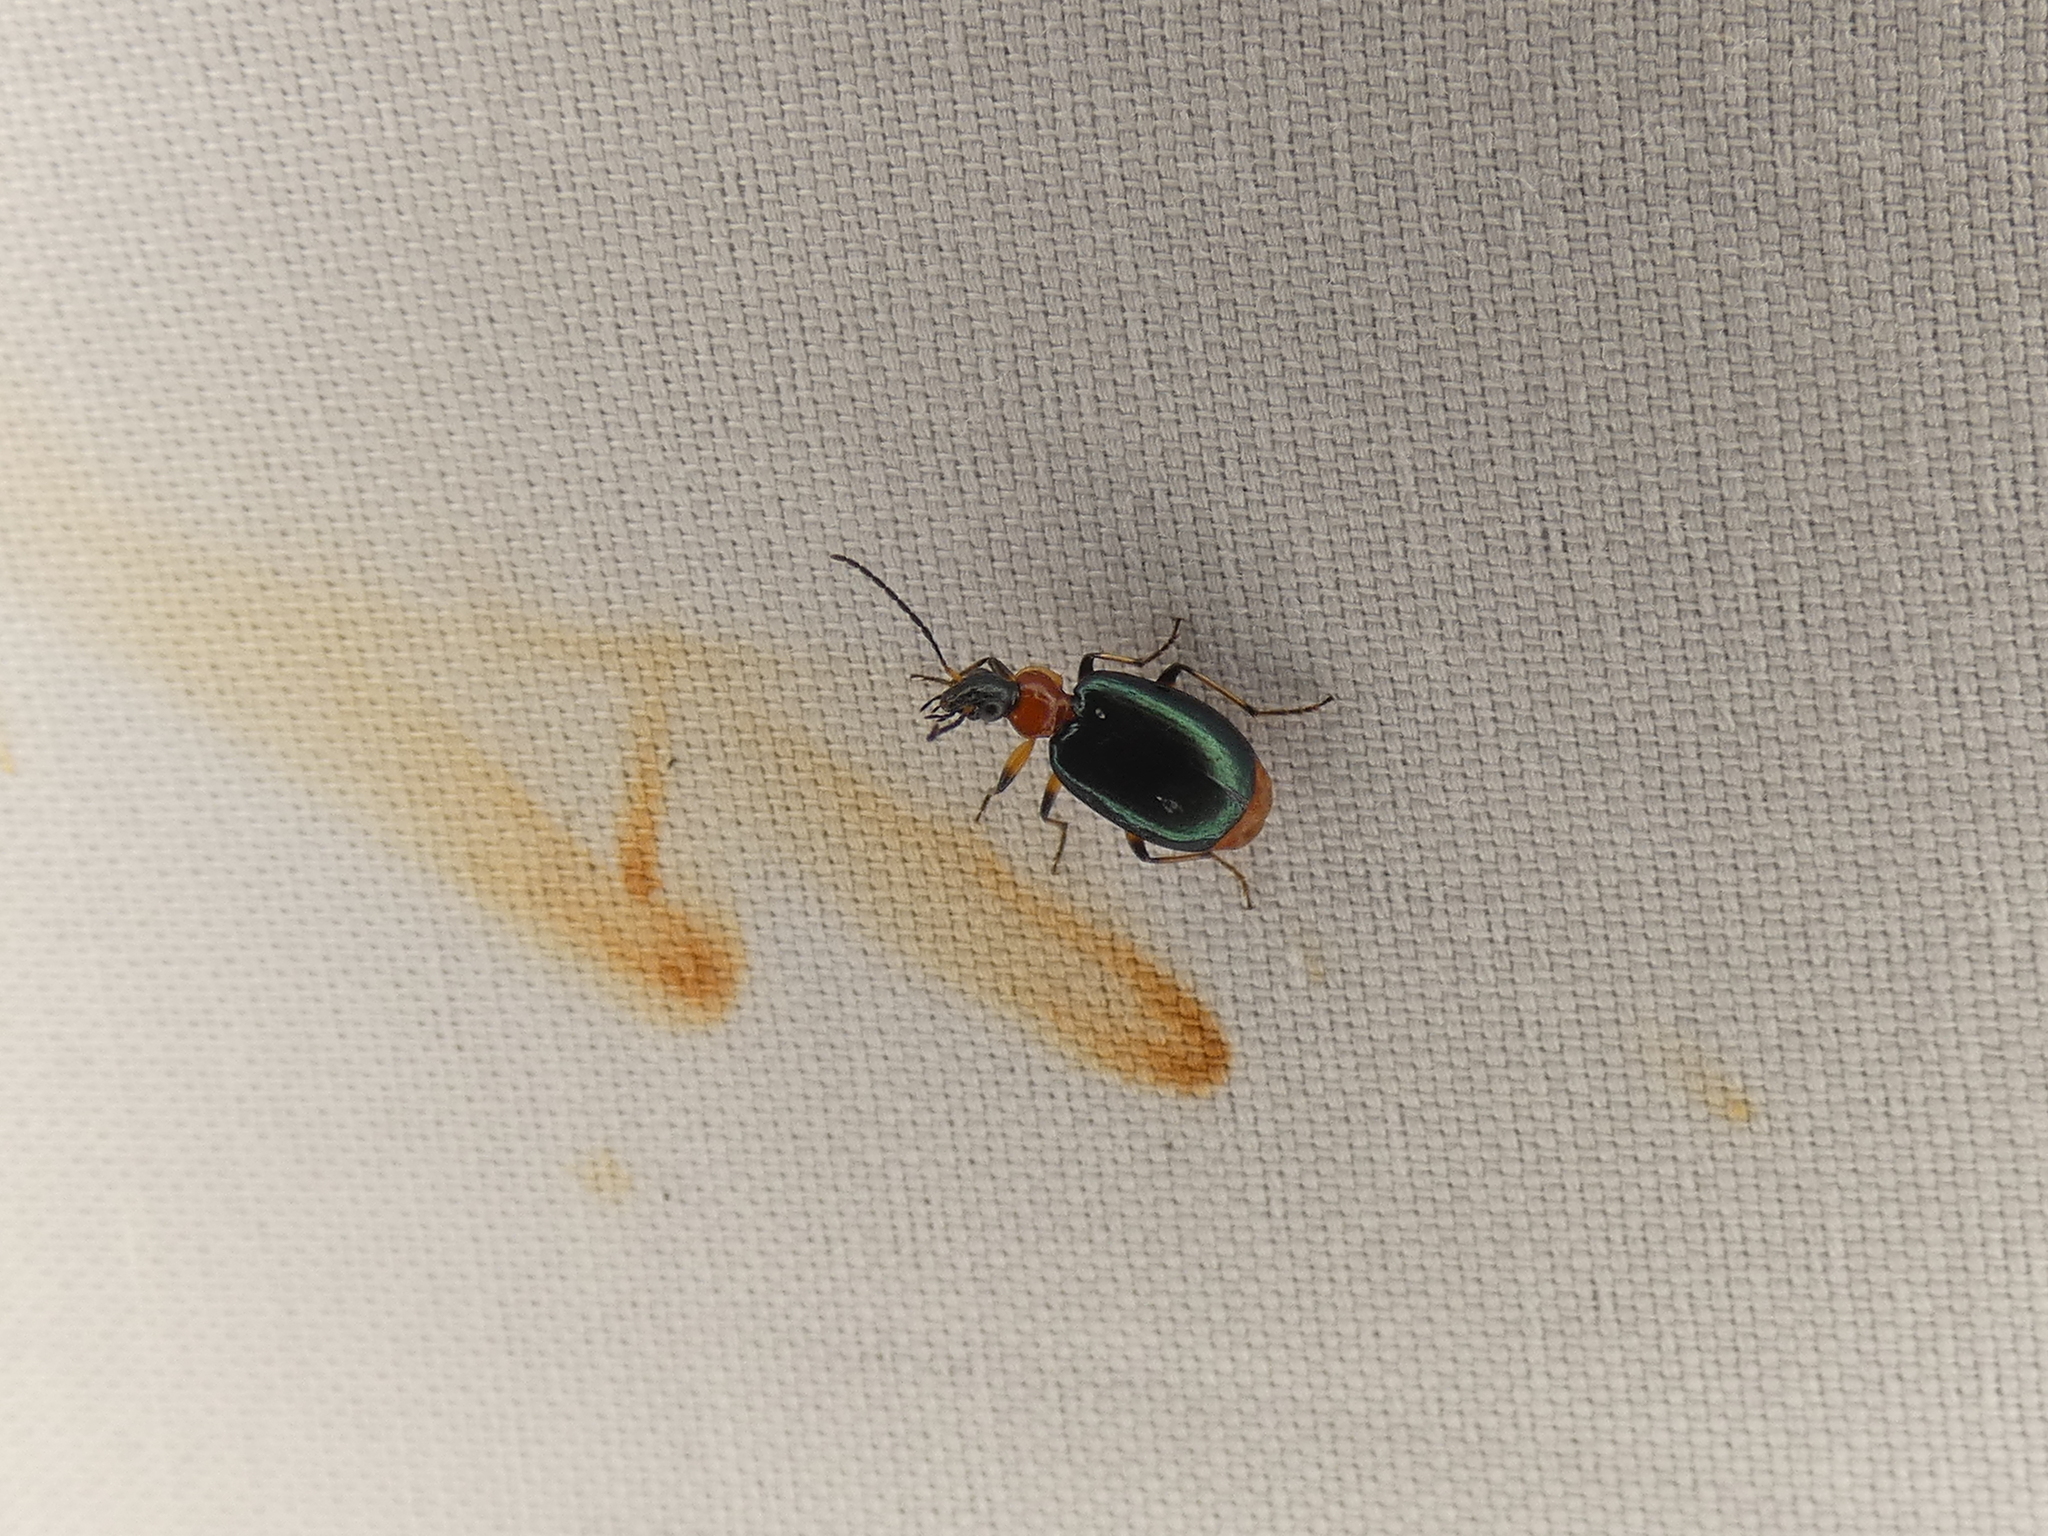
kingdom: Animalia
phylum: Arthropoda
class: Insecta
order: Coleoptera
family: Carabidae
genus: Lebia
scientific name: Lebia viridipennis
